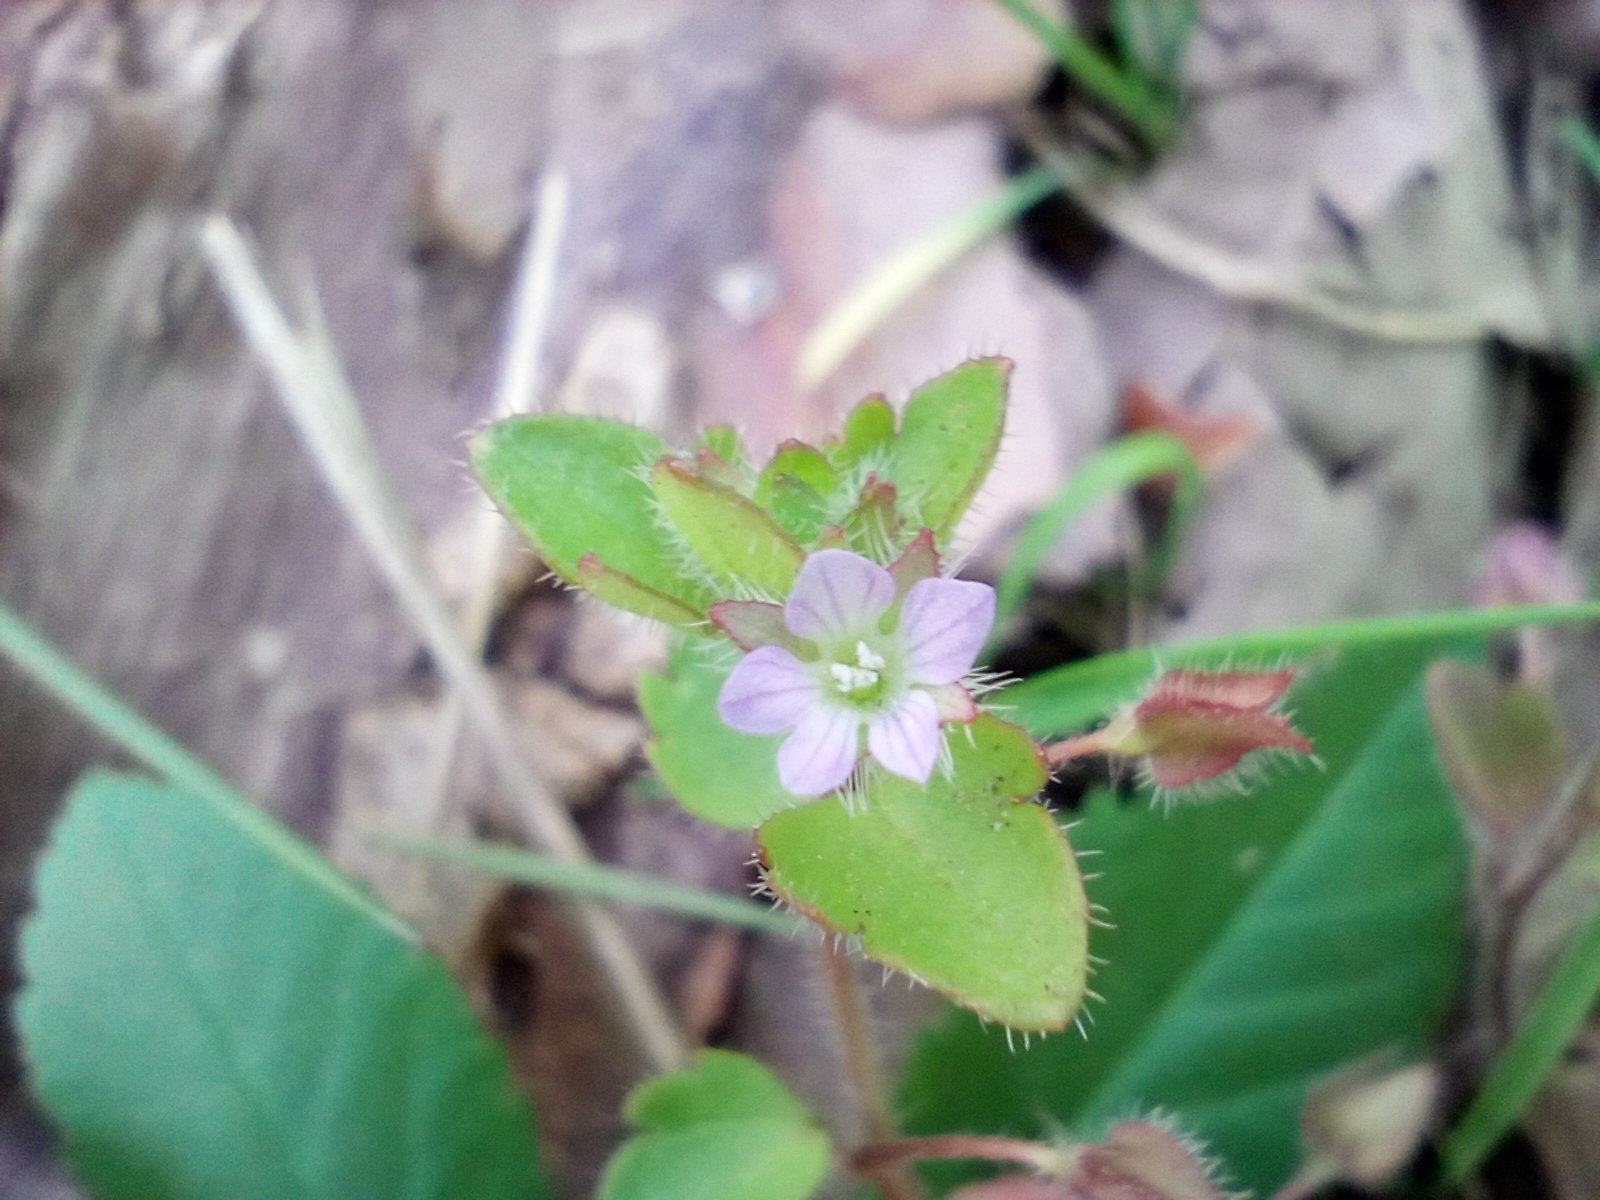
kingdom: Plantae
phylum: Tracheophyta
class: Magnoliopsida
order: Lamiales
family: Plantaginaceae
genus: Veronica
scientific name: Veronica sublobata
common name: False ivy-leaved speedwell
